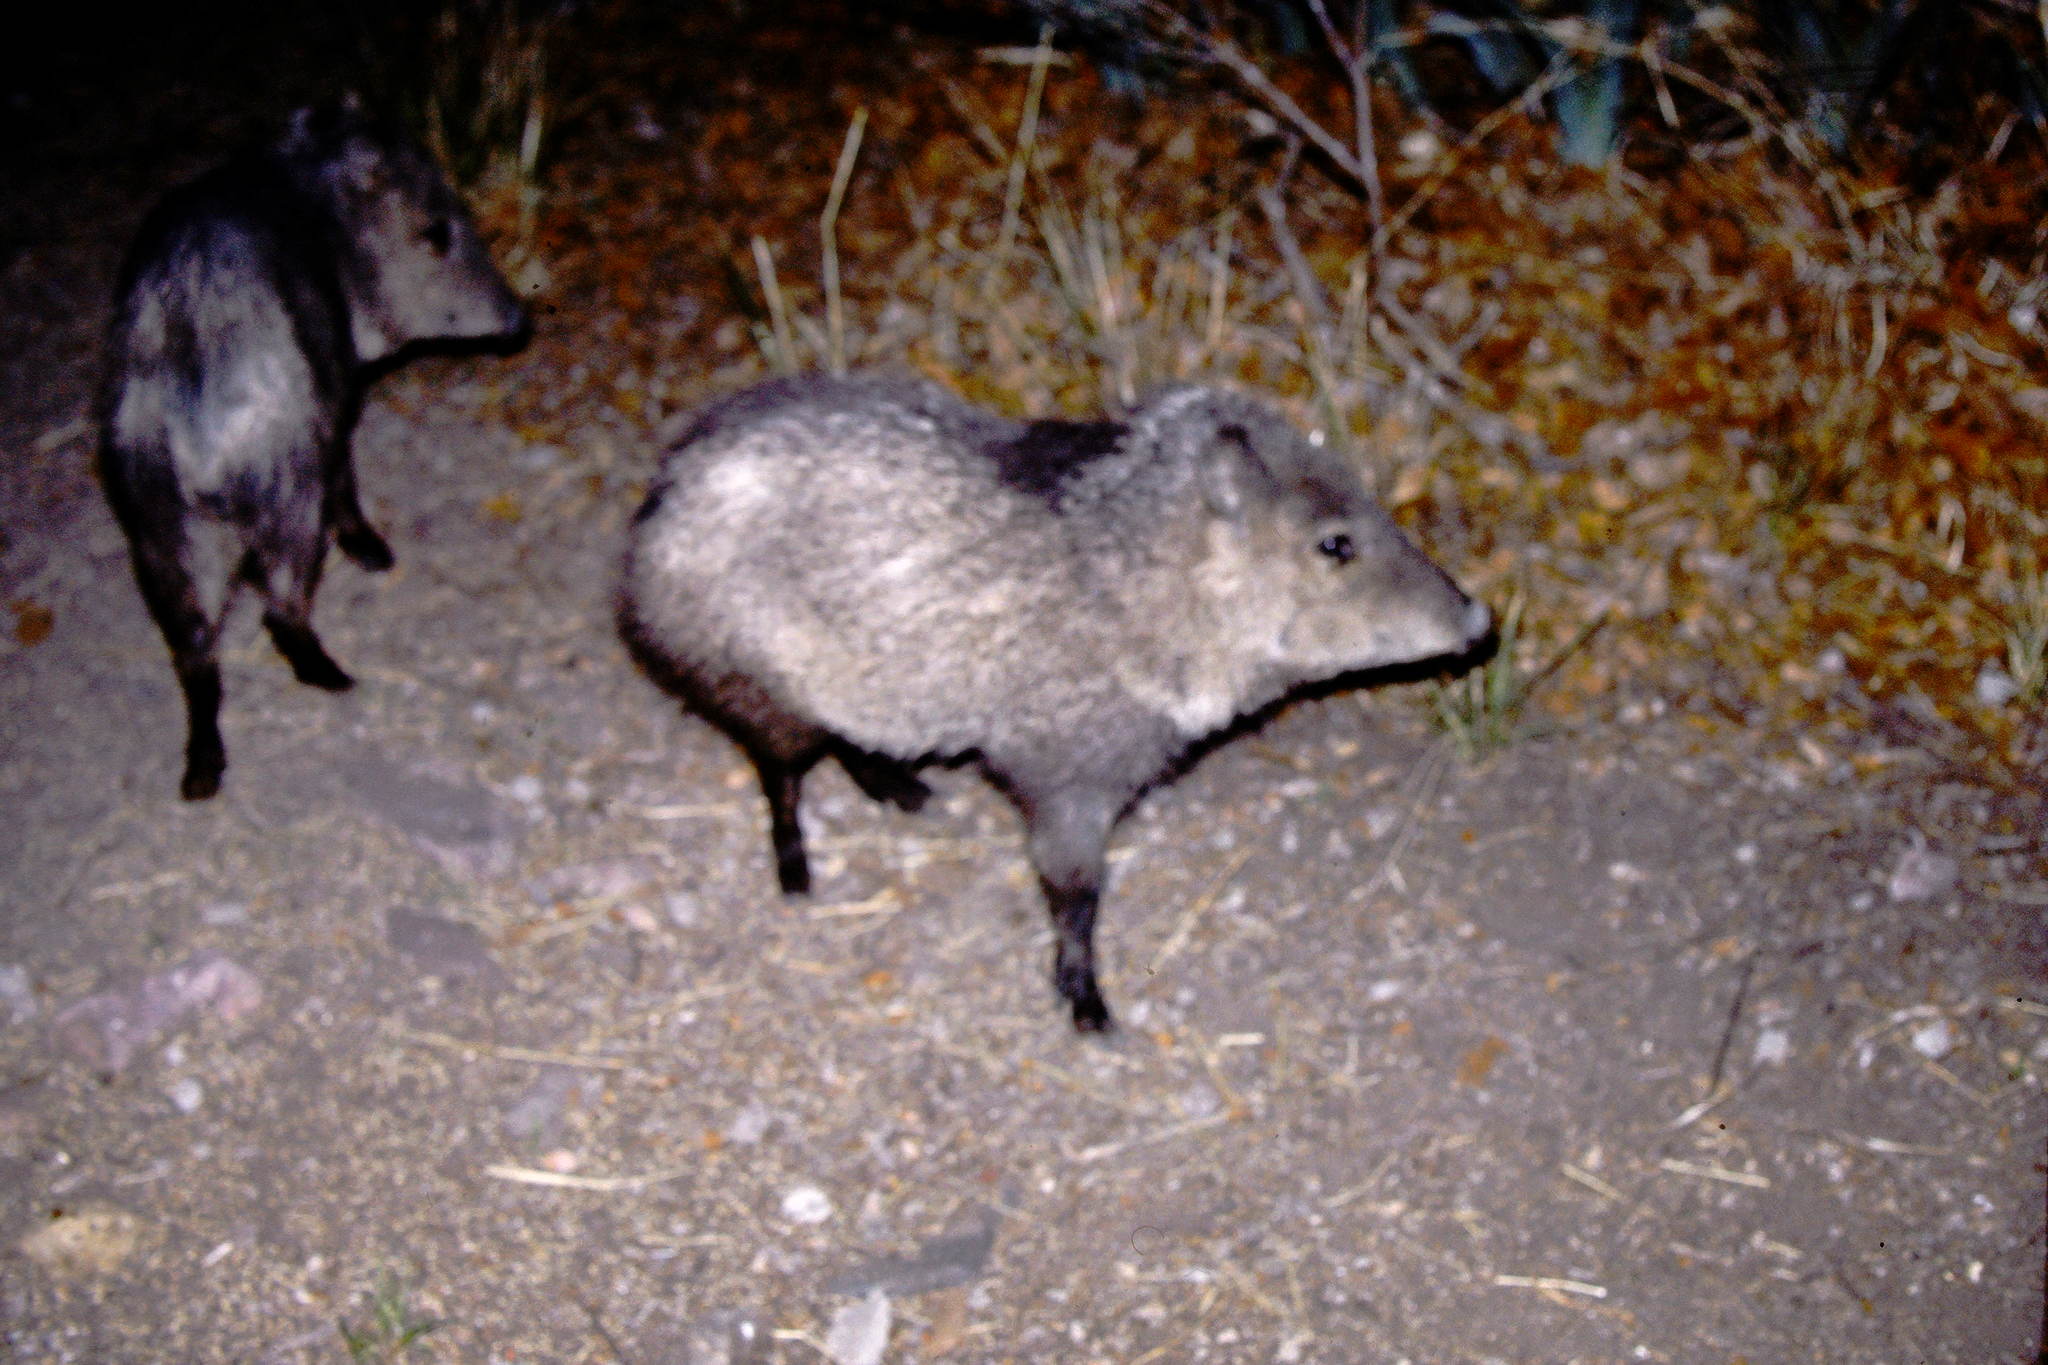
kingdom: Animalia
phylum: Chordata
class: Mammalia
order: Artiodactyla
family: Tayassuidae
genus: Pecari
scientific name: Pecari tajacu
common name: Collared peccary
